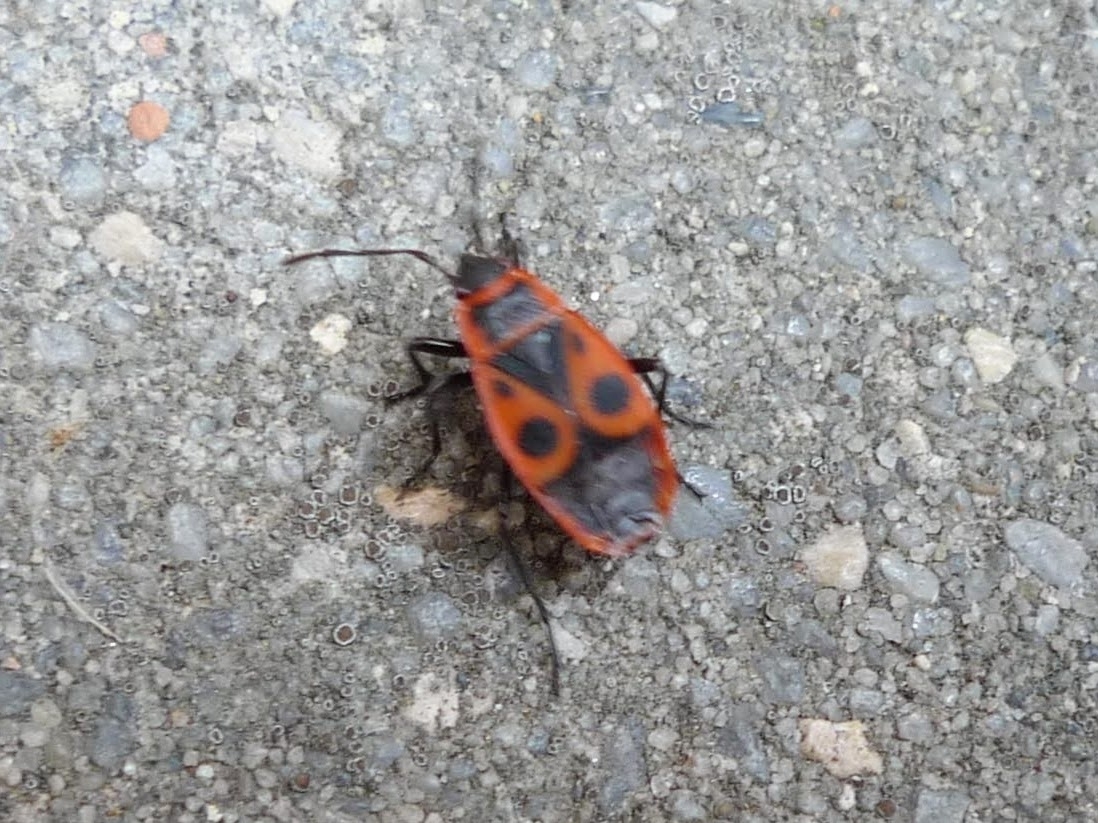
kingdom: Animalia
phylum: Arthropoda
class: Insecta
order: Hemiptera
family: Pyrrhocoridae
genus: Pyrrhocoris
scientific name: Pyrrhocoris apterus
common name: Firebug
